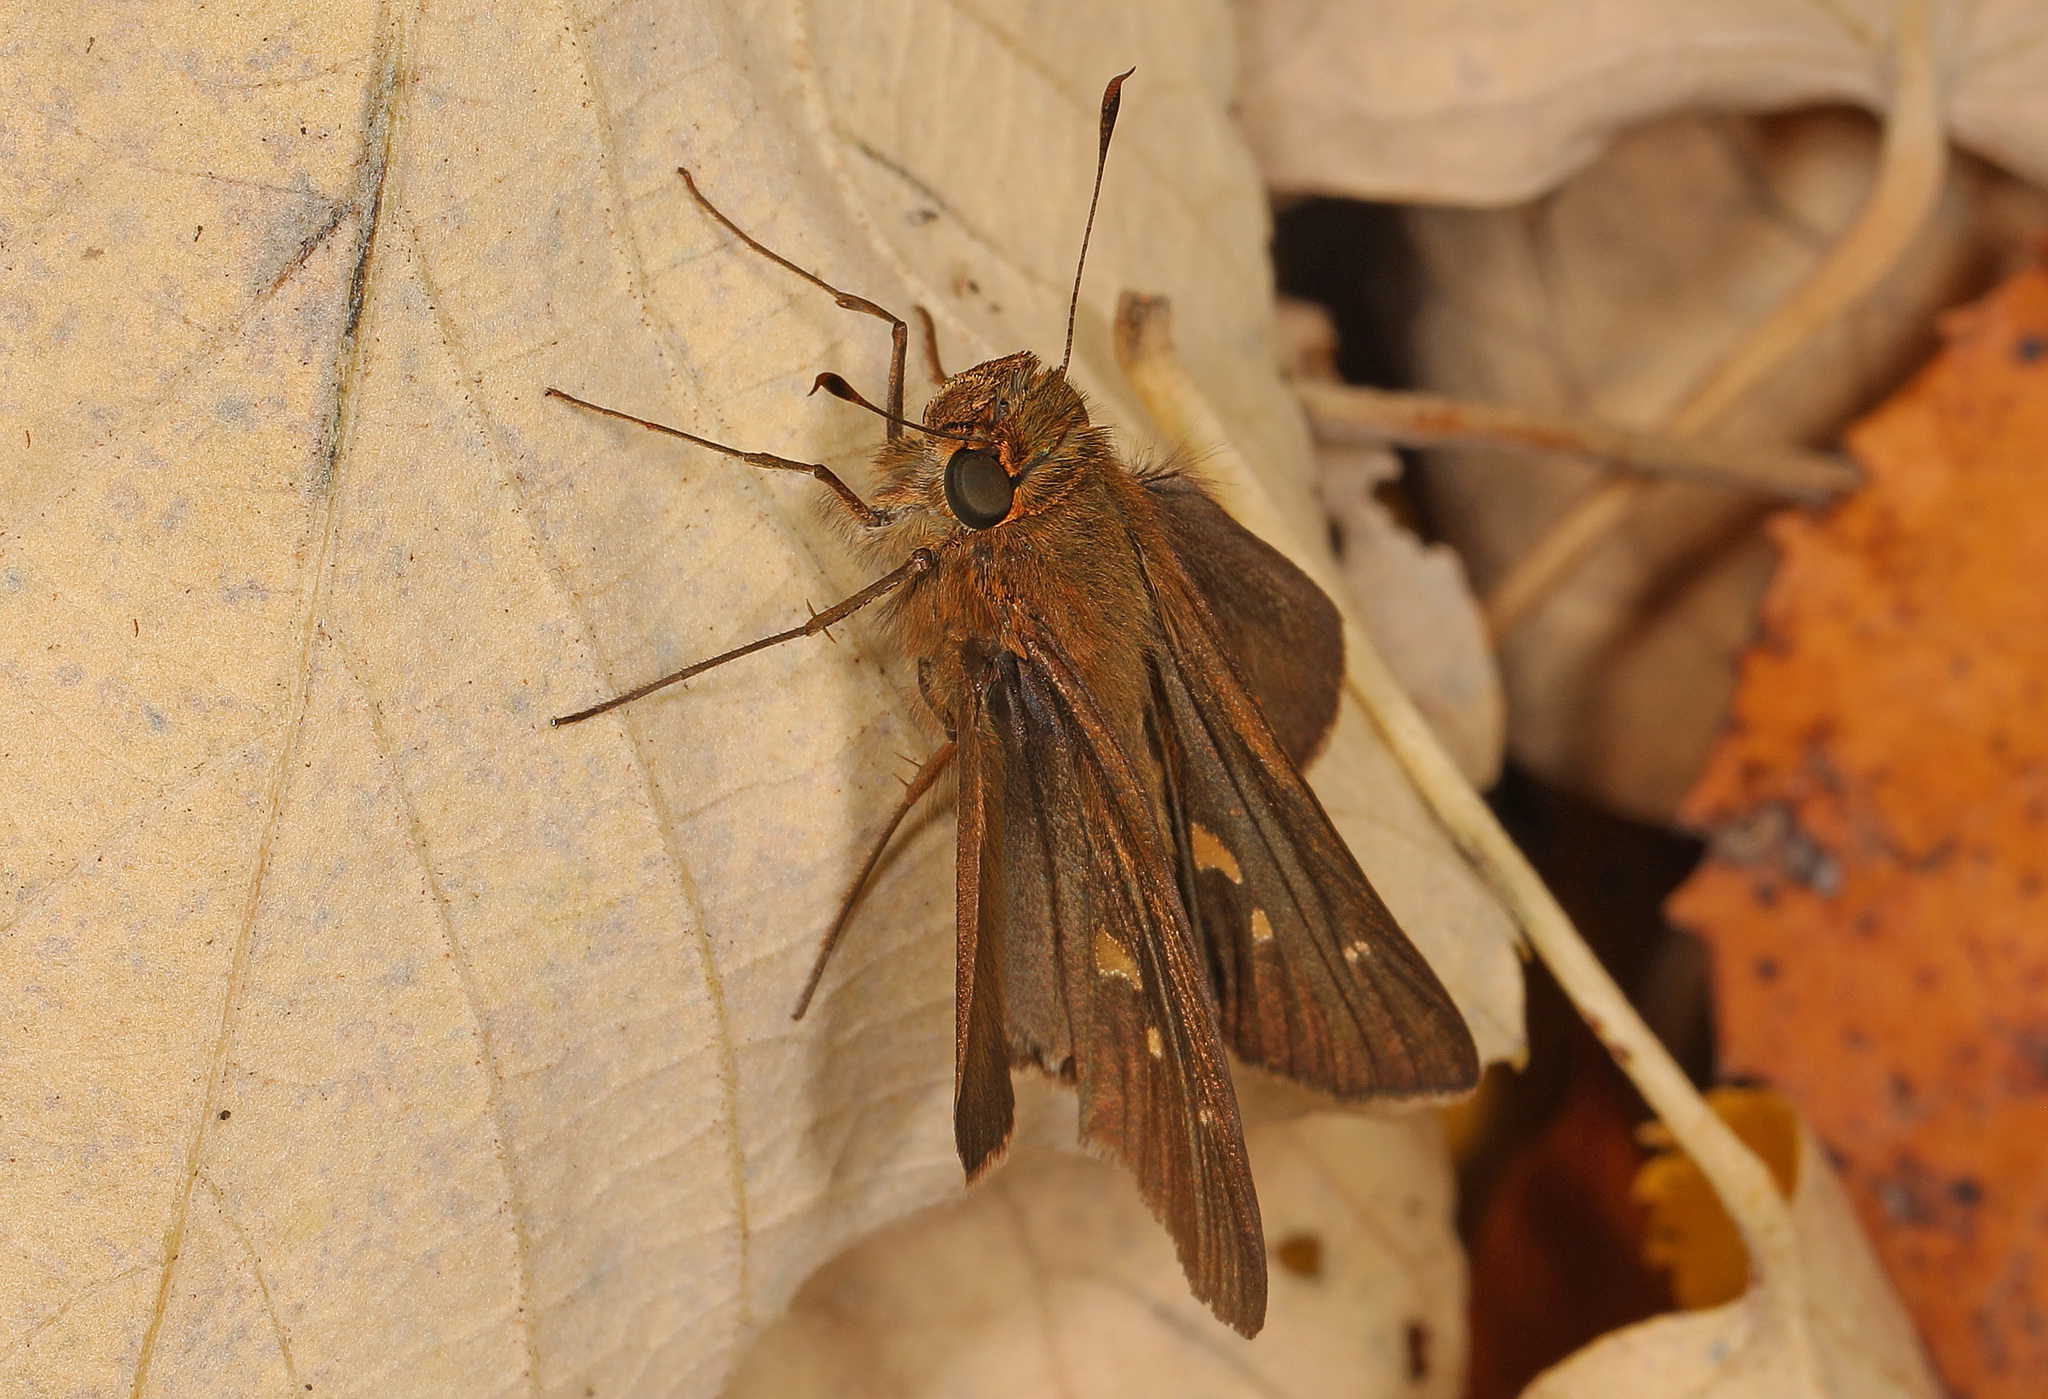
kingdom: Animalia
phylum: Arthropoda
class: Insecta
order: Lepidoptera
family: Hesperiidae
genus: Panoquina
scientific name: Panoquina ocola
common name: Ocola skipper
